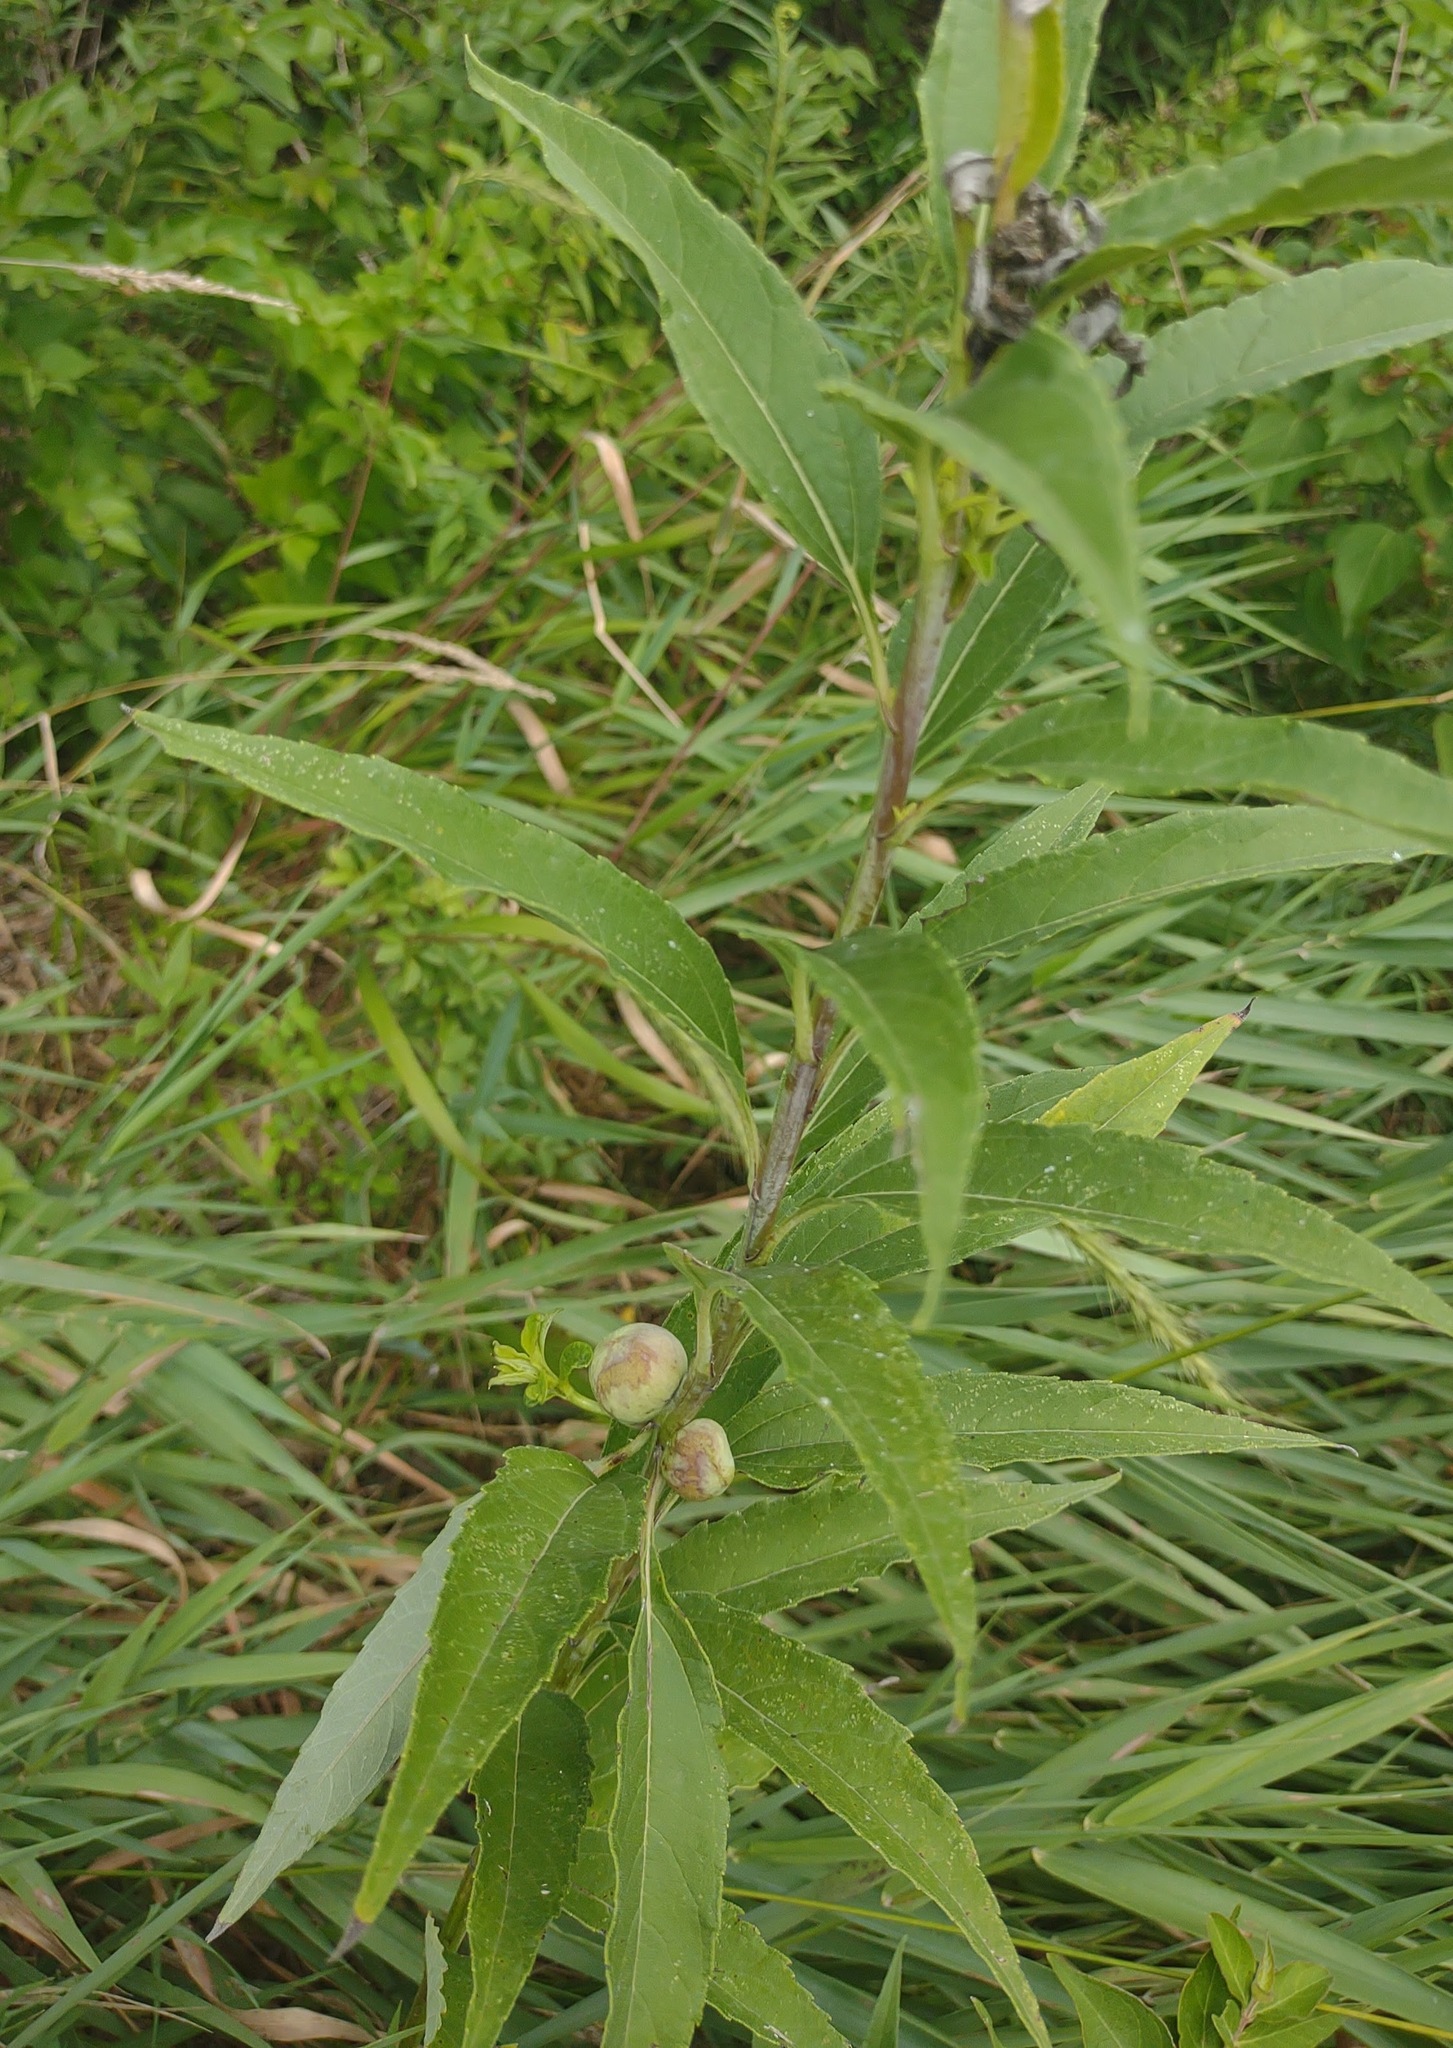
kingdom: Animalia
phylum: Arthropoda
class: Insecta
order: Diptera
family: Cecidomyiidae
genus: Asphondylia
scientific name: Asphondylia helianthiglobulus
